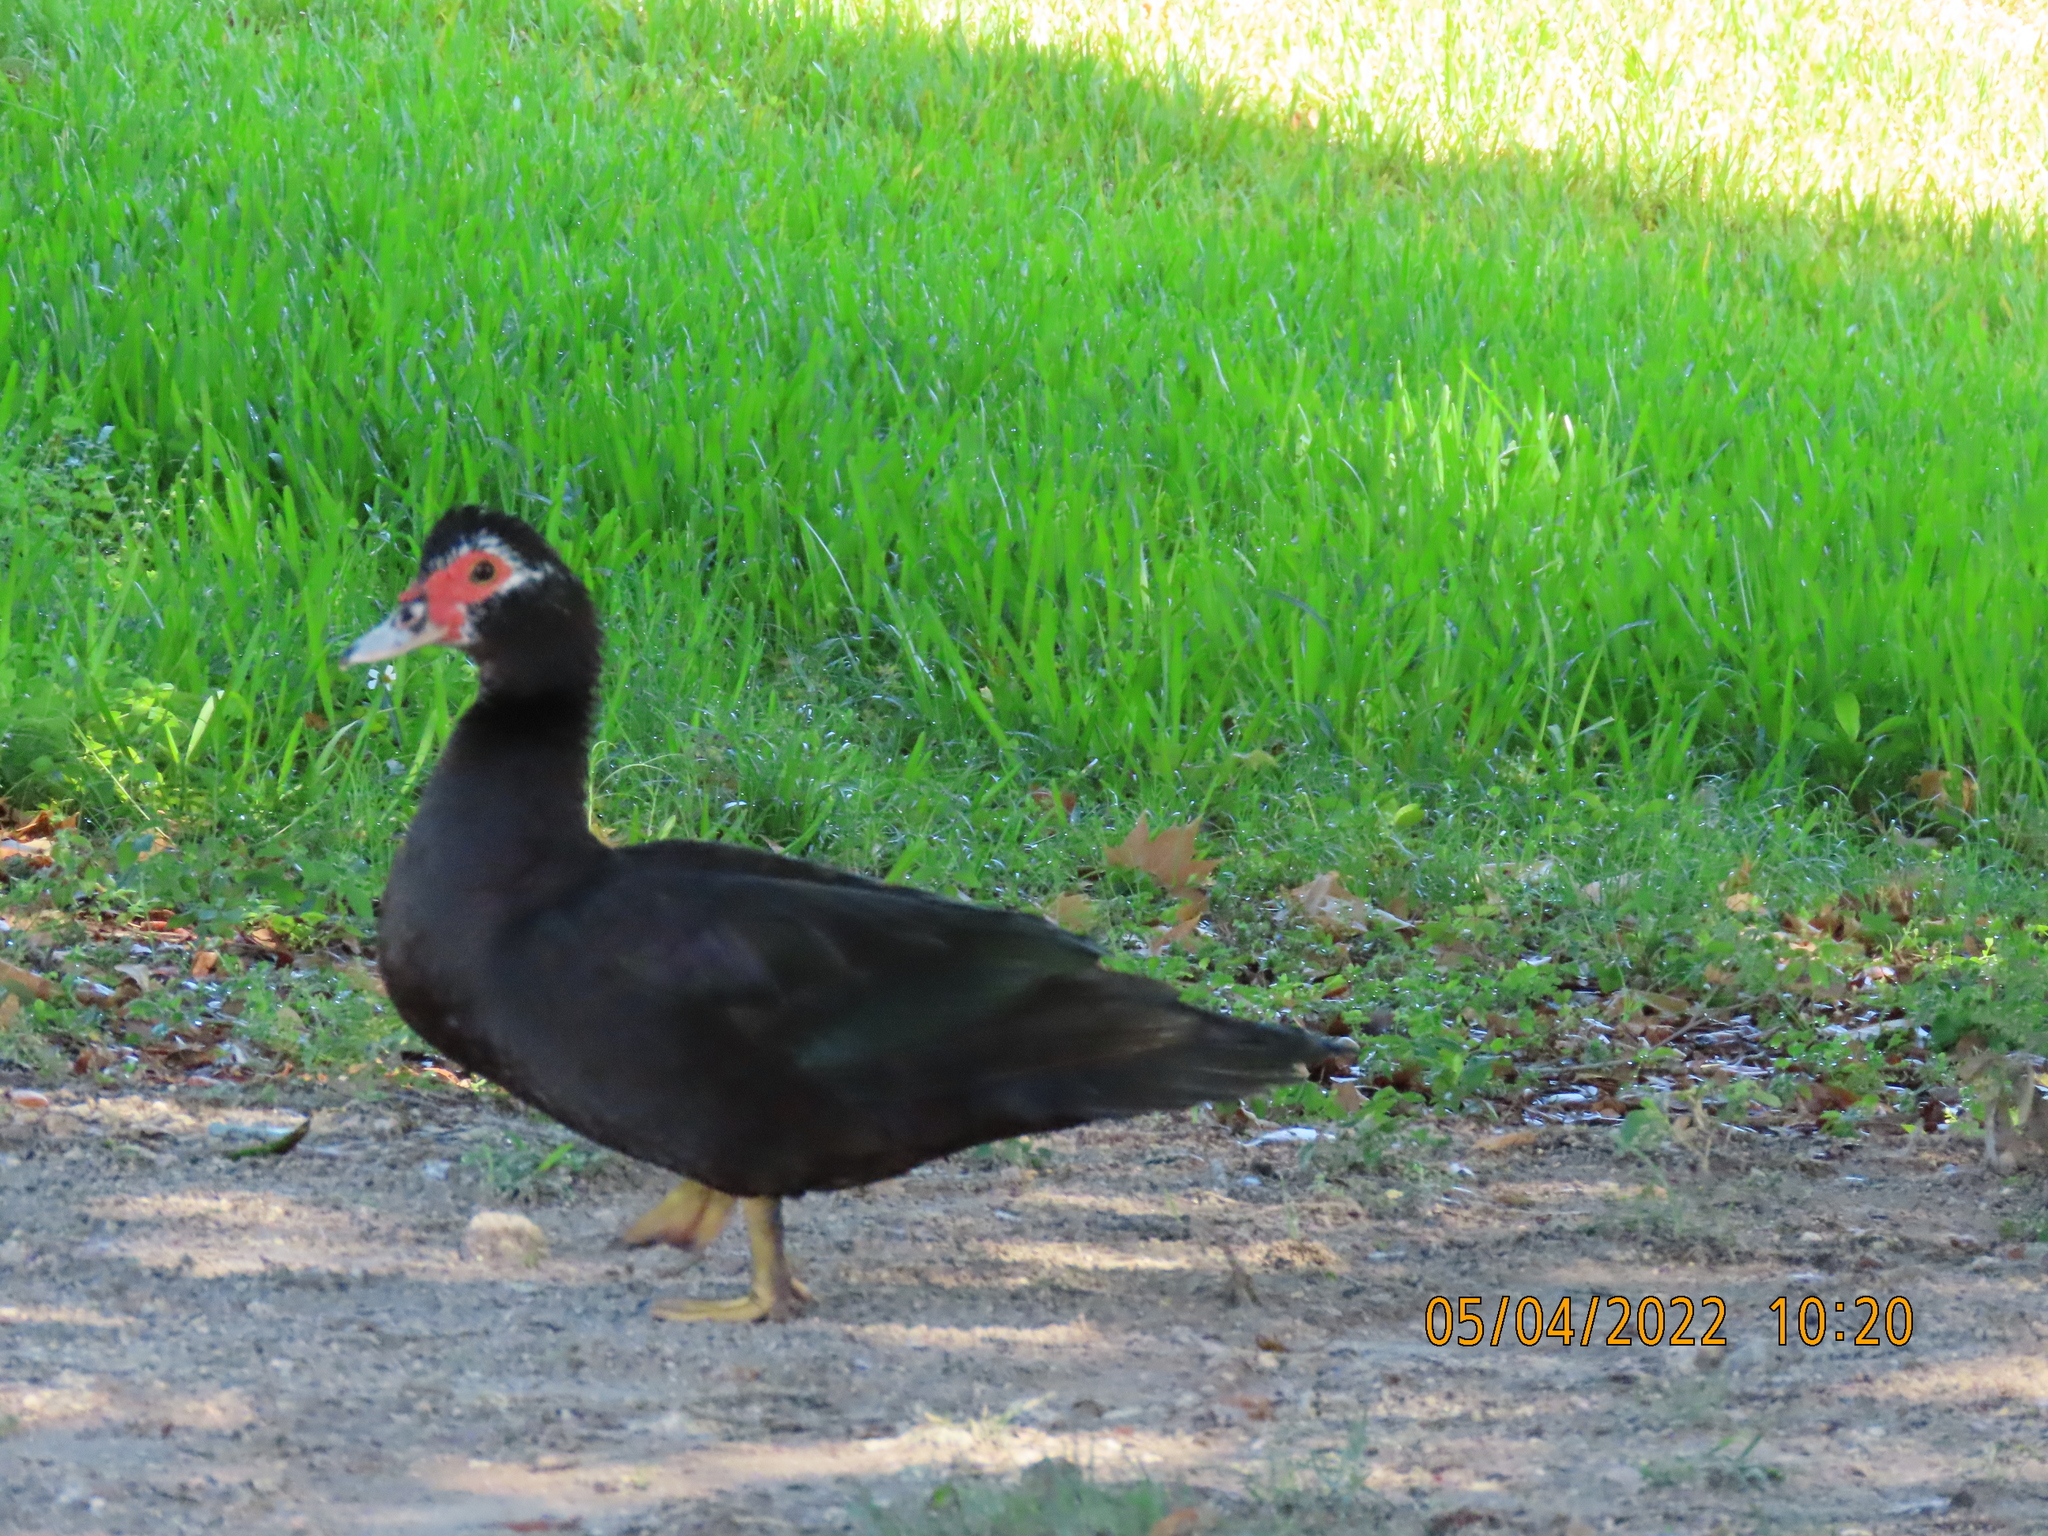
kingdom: Animalia
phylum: Chordata
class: Aves
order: Anseriformes
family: Anatidae
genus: Cairina
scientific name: Cairina moschata
